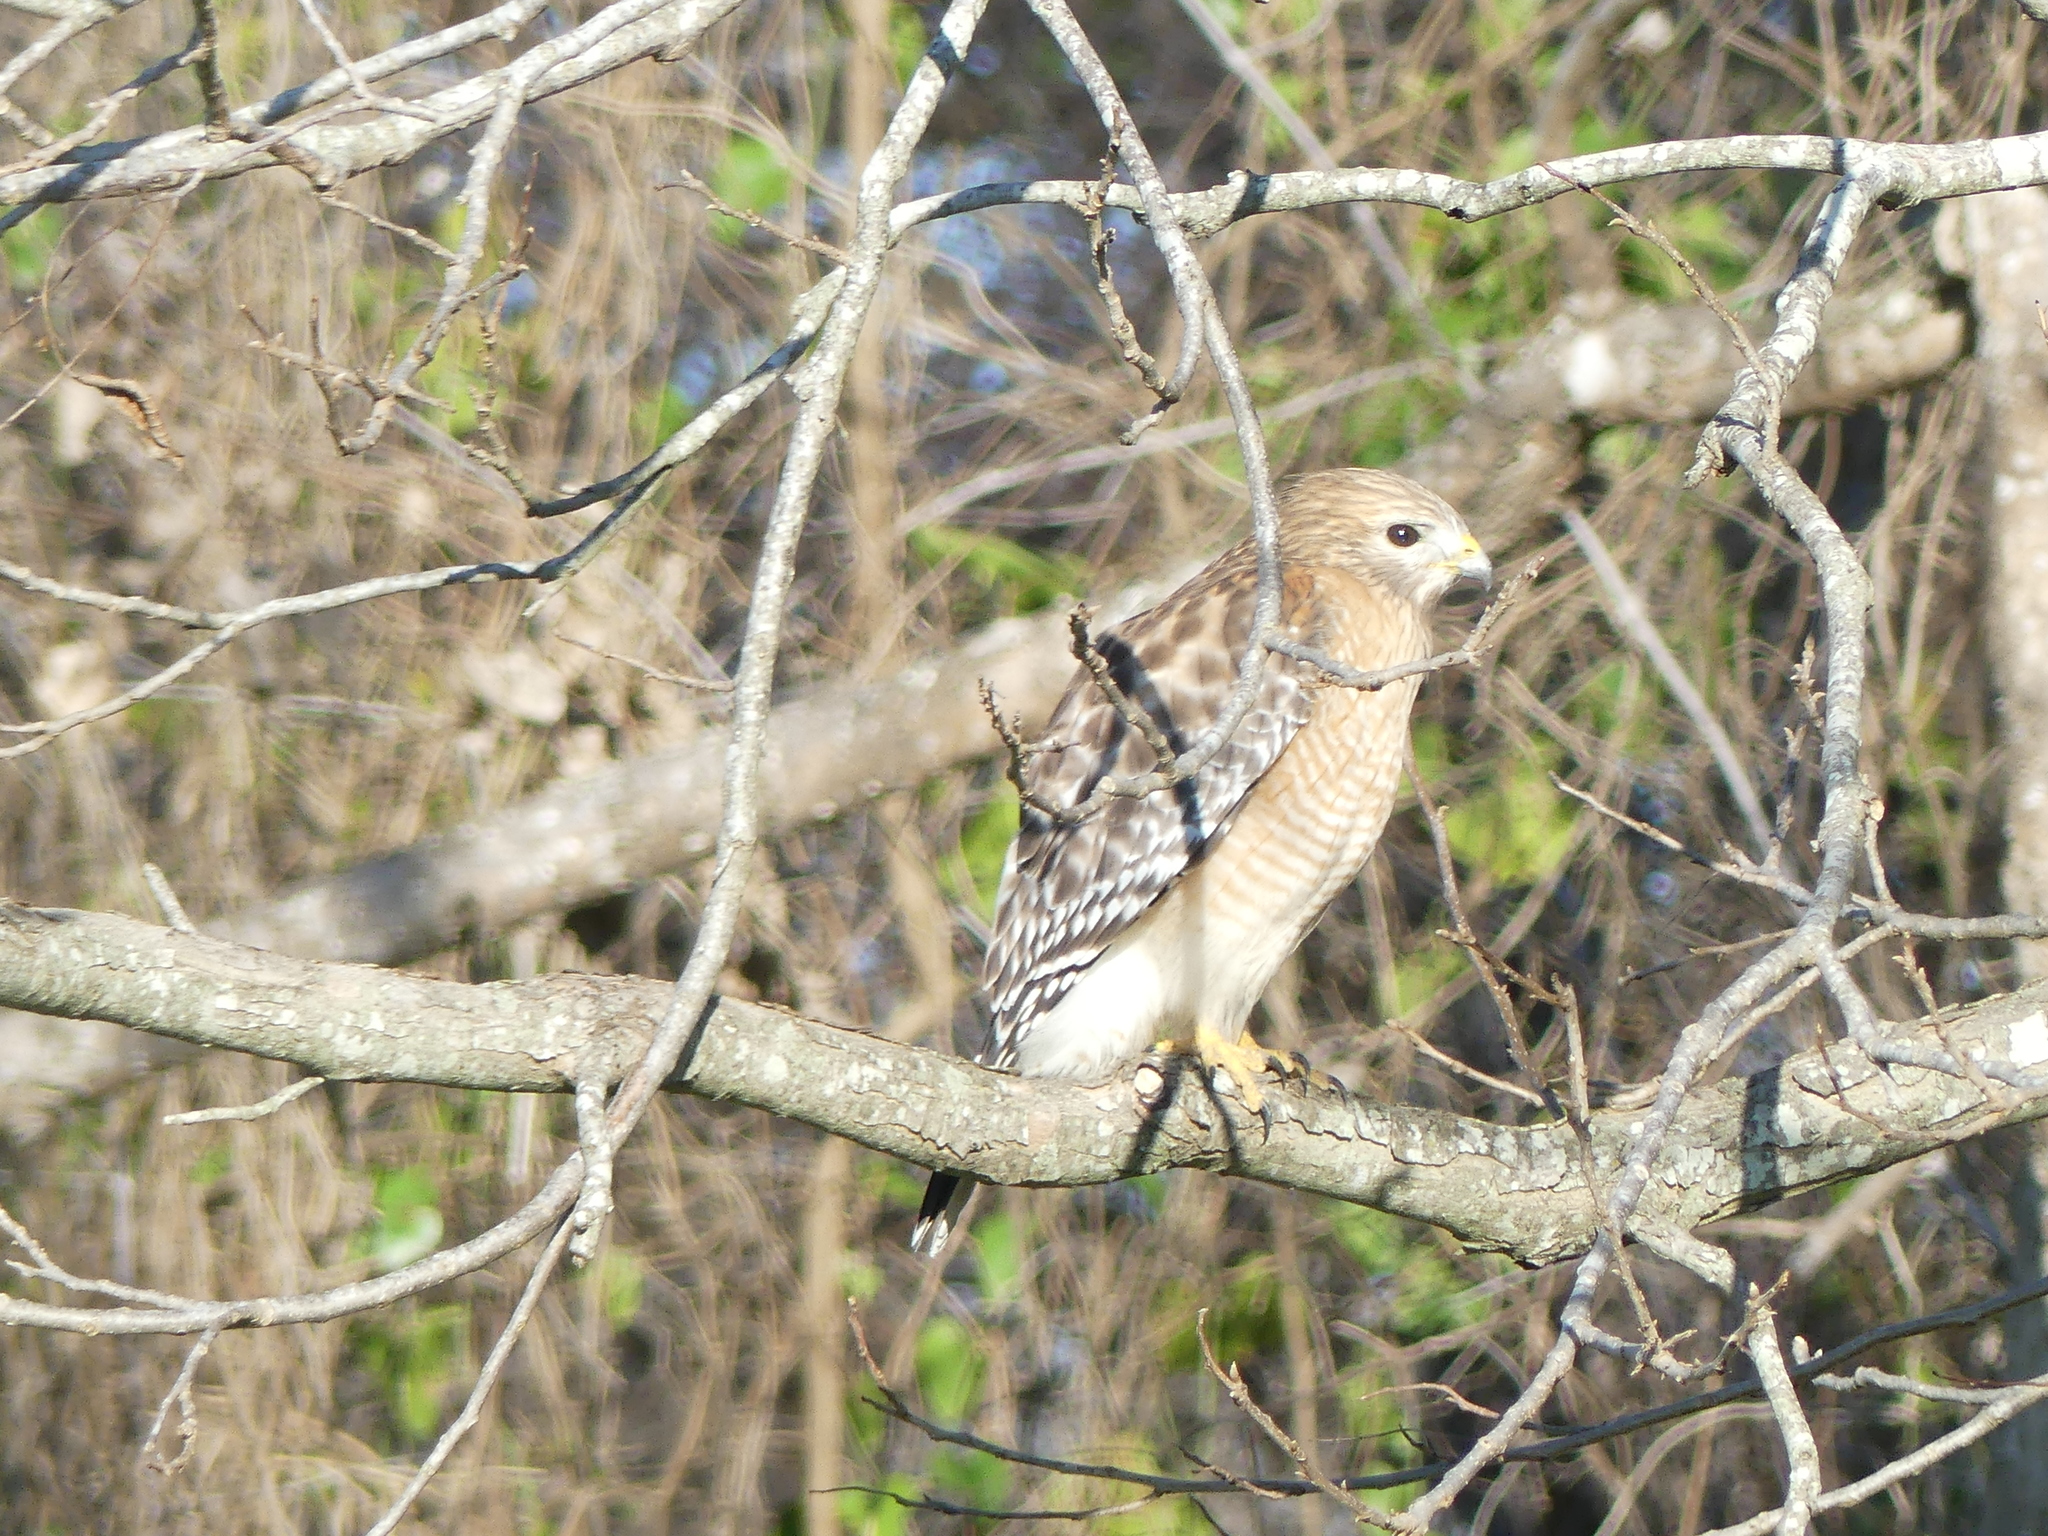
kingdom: Animalia
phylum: Chordata
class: Aves
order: Accipitriformes
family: Accipitridae
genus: Buteo
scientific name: Buteo lineatus
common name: Red-shouldered hawk
